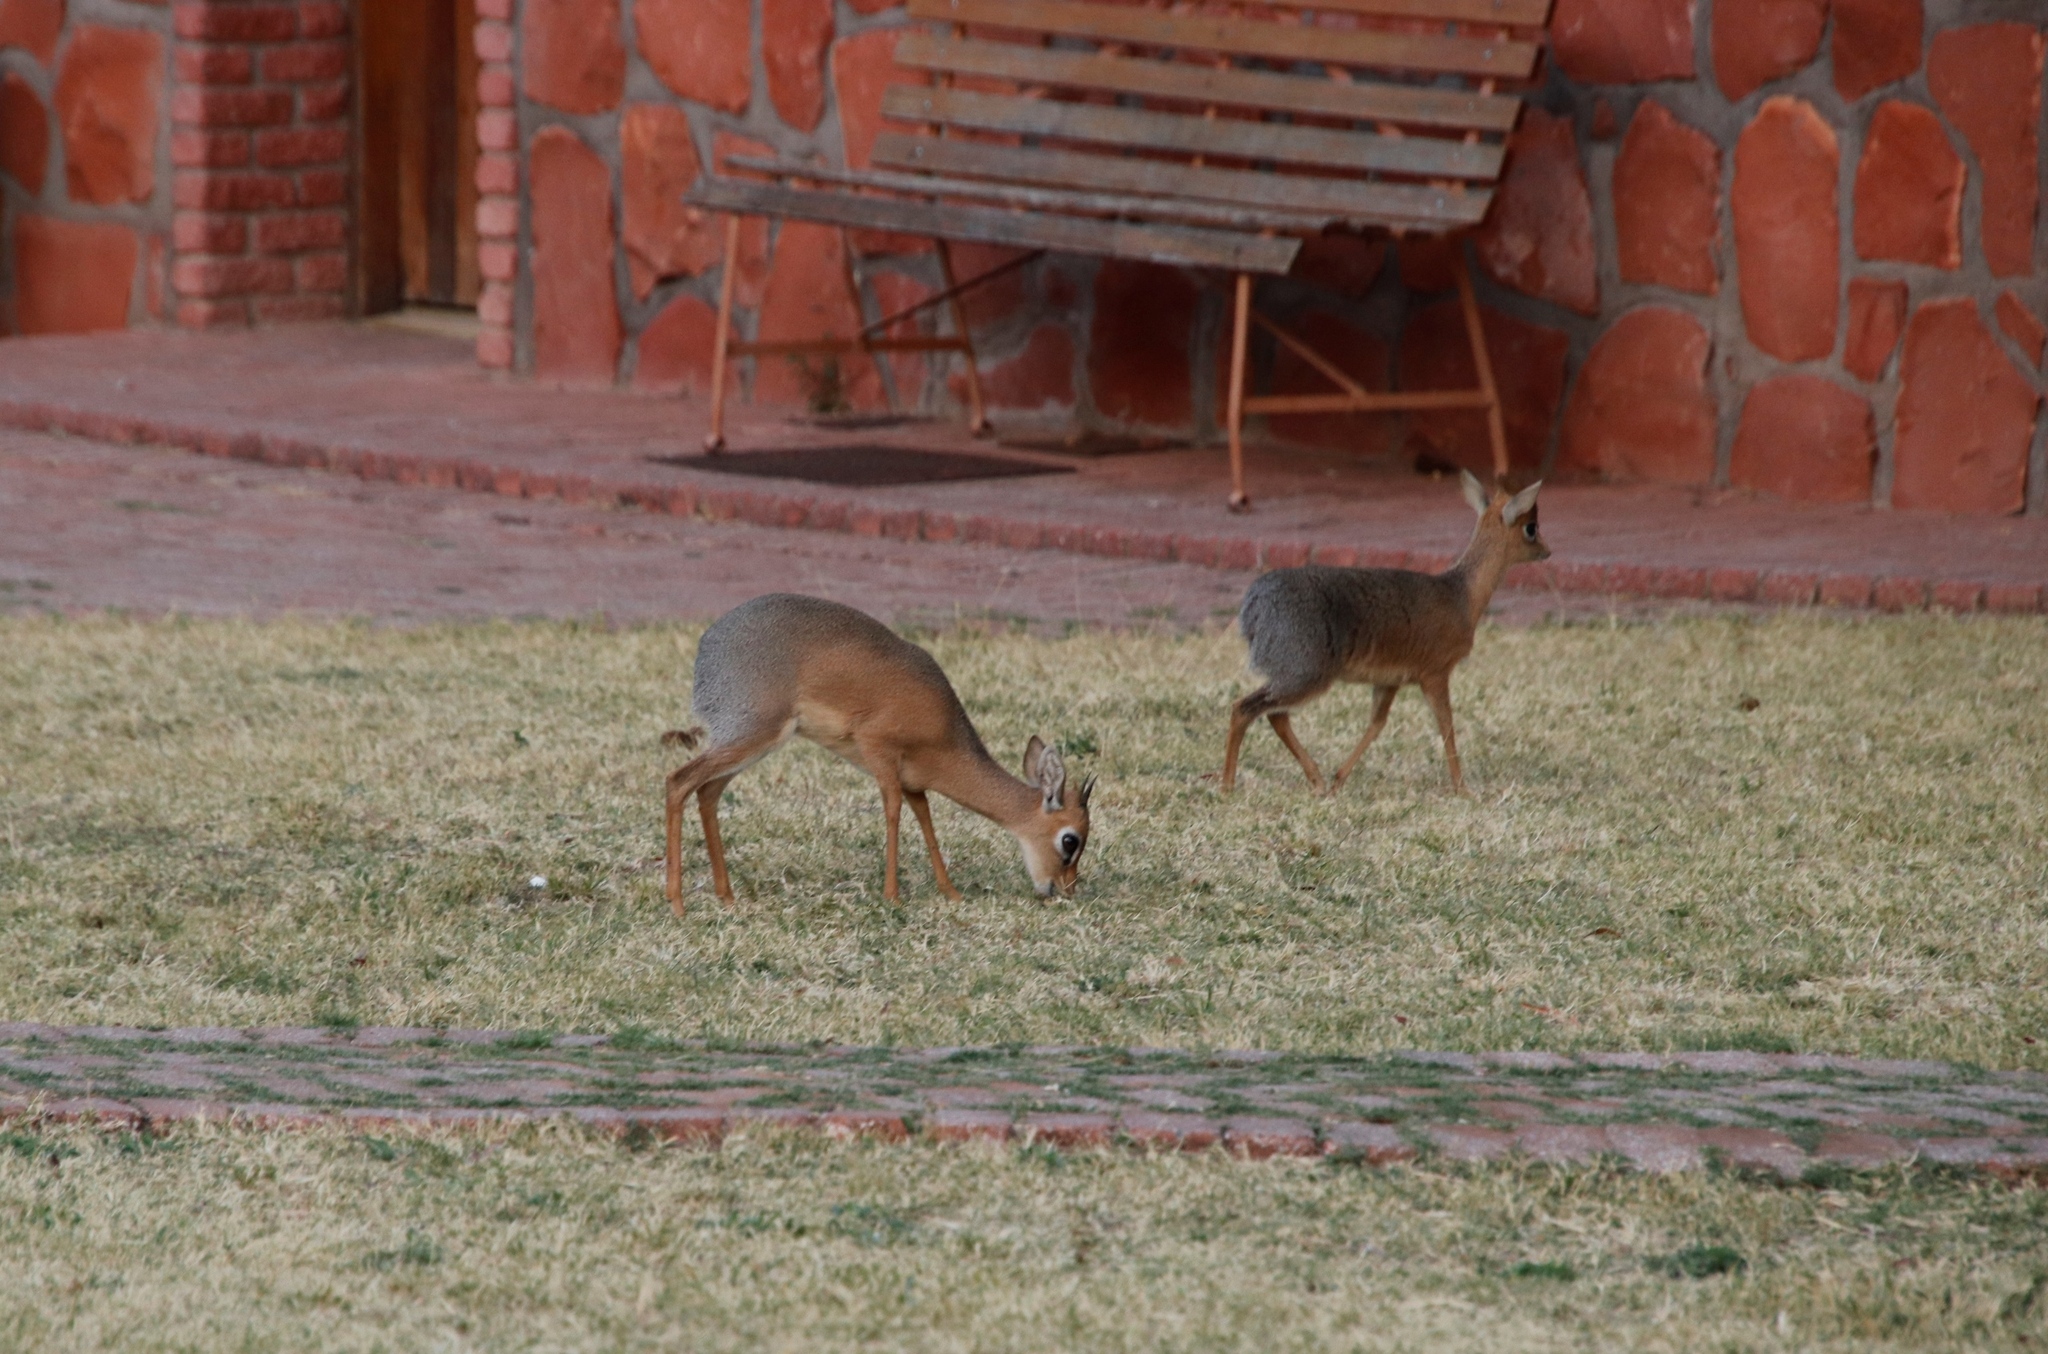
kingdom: Animalia
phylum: Chordata
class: Mammalia
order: Artiodactyla
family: Bovidae
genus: Madoqua
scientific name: Madoqua kirkii
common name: Kirk's dik-dik
